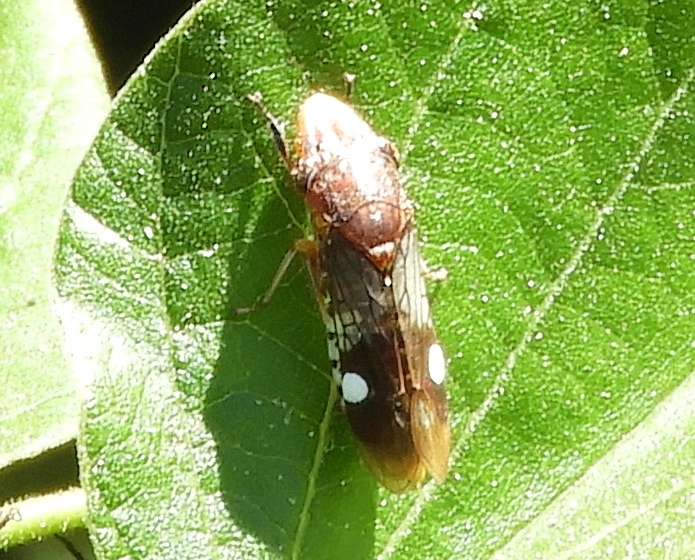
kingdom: Animalia
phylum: Arthropoda
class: Insecta
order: Hemiptera
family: Cicadellidae
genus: Homalodisca
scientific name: Homalodisca
